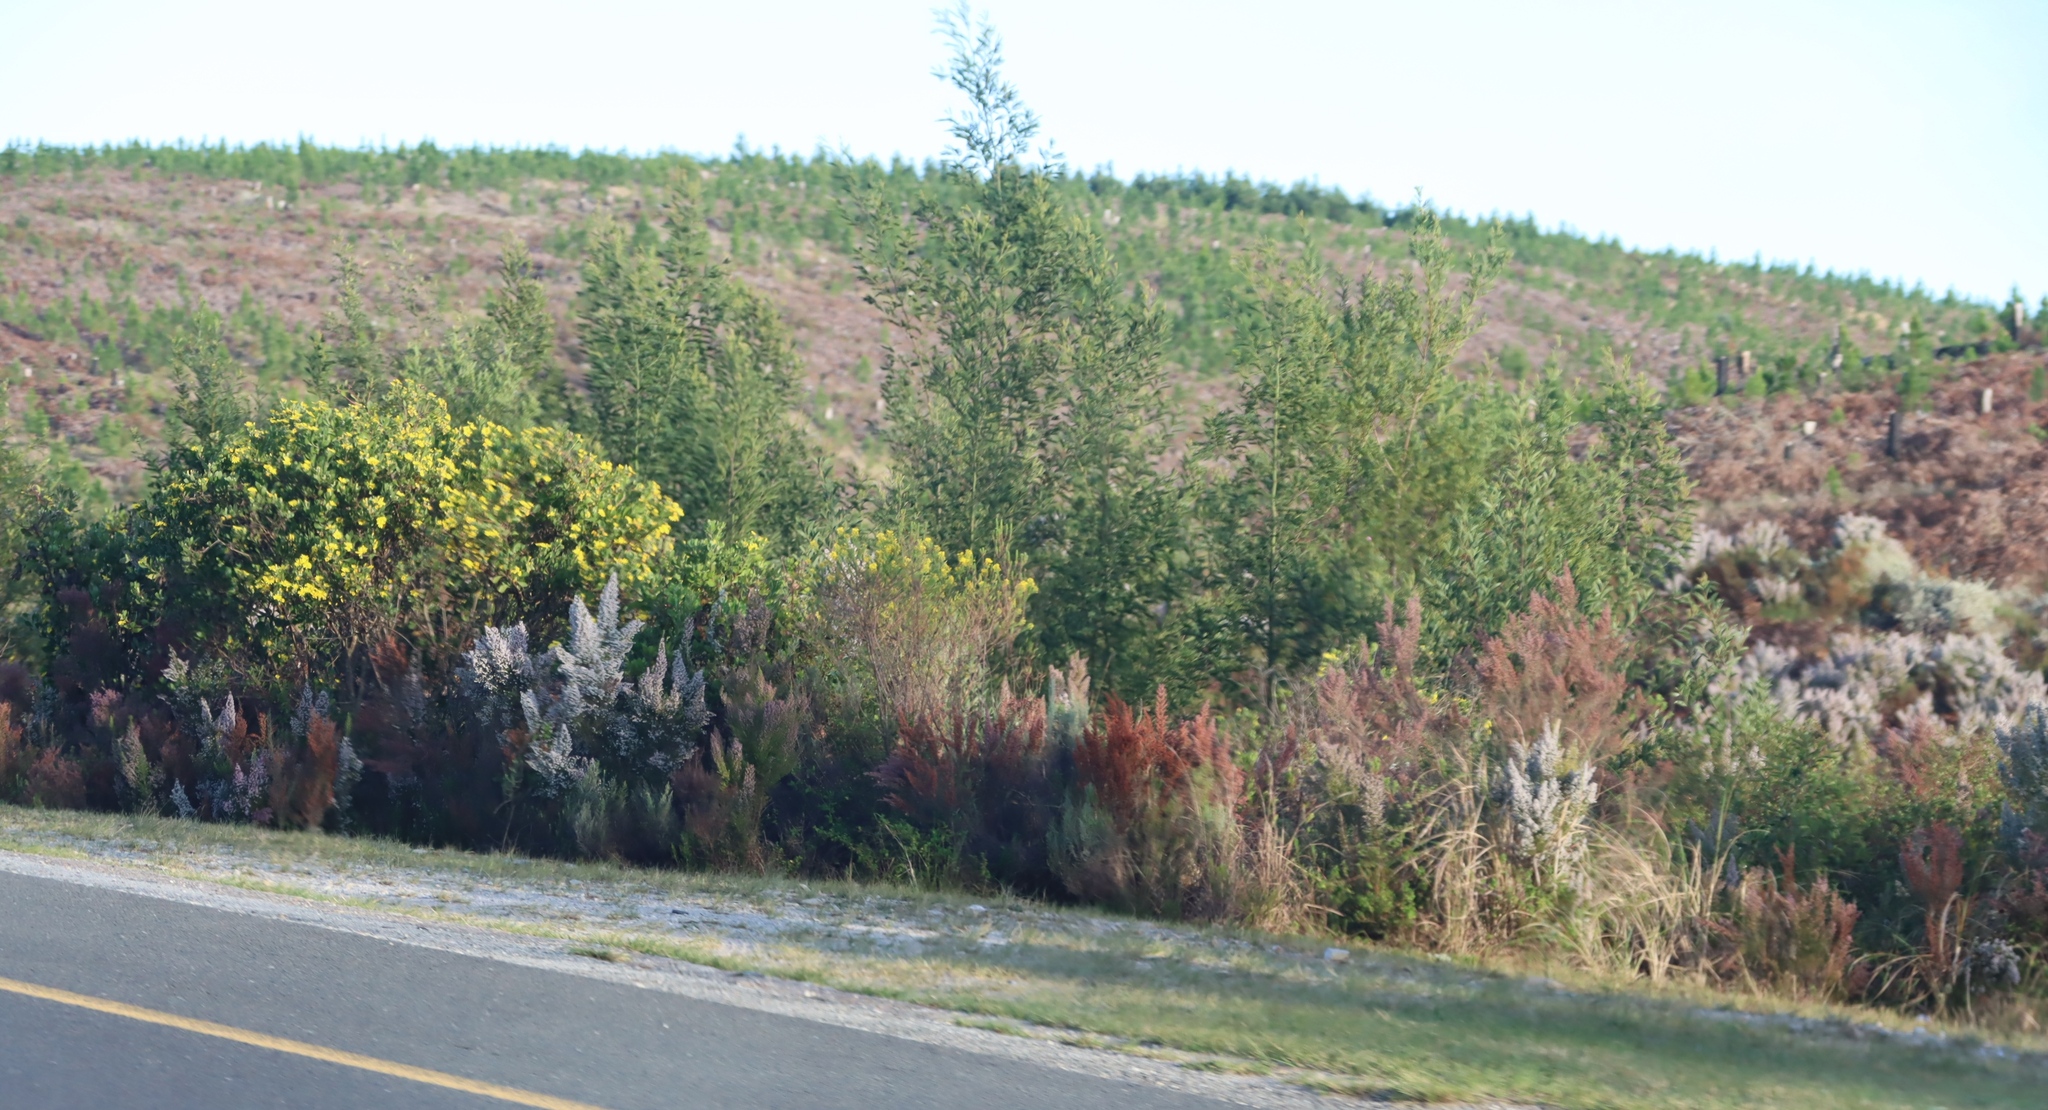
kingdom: Plantae
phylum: Tracheophyta
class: Magnoliopsida
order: Fabales
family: Fabaceae
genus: Acacia
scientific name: Acacia mearnsii
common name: Black wattle
